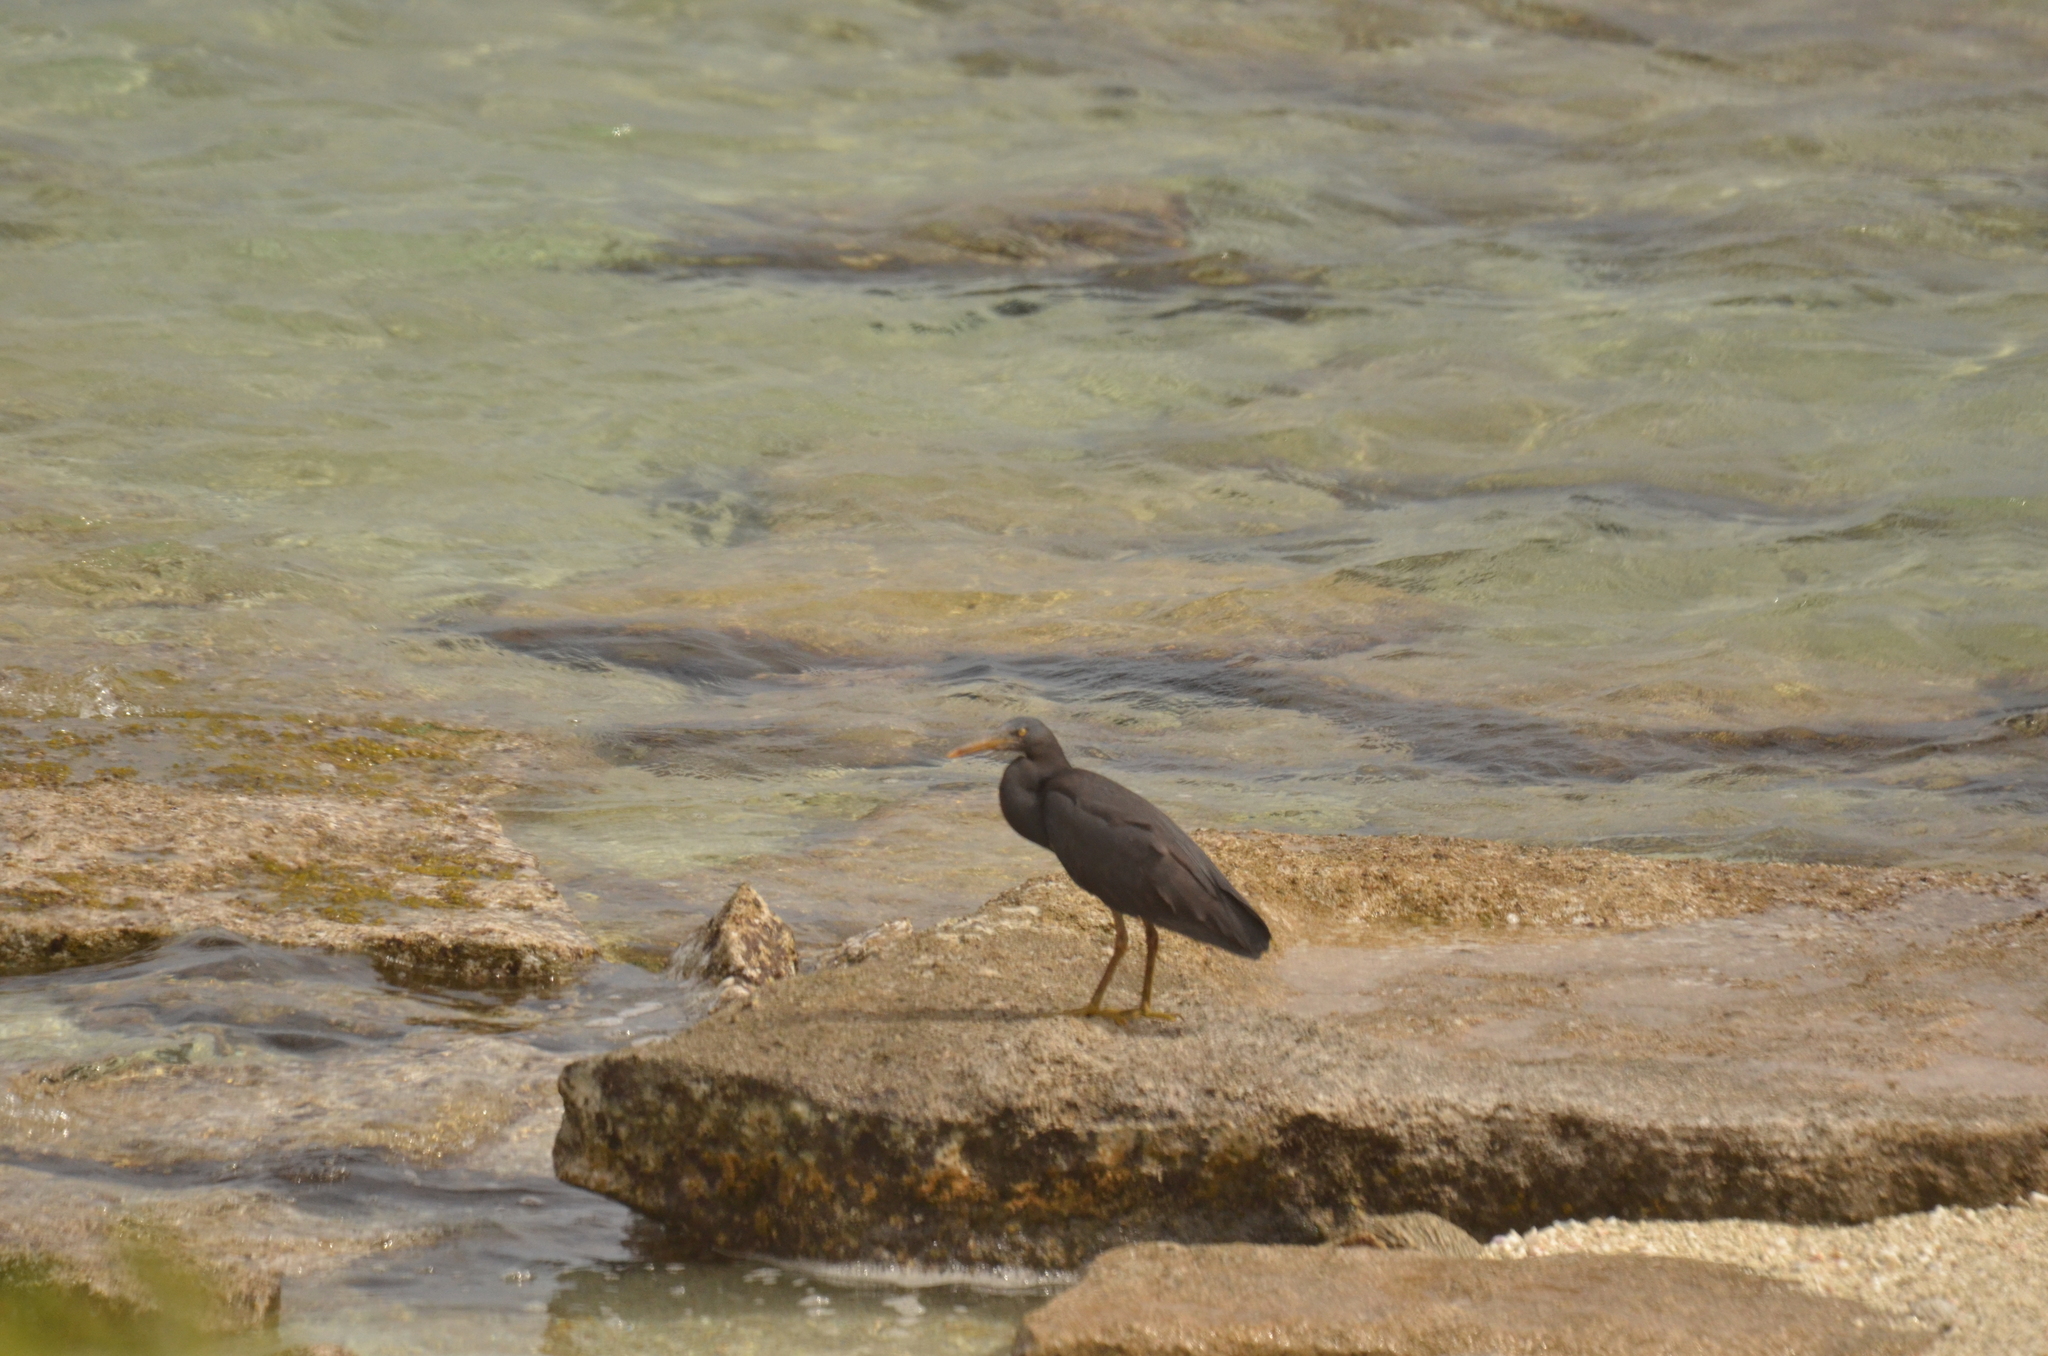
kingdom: Animalia
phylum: Chordata
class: Aves
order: Pelecaniformes
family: Ardeidae
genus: Egretta
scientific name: Egretta sacra
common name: Pacific reef heron
